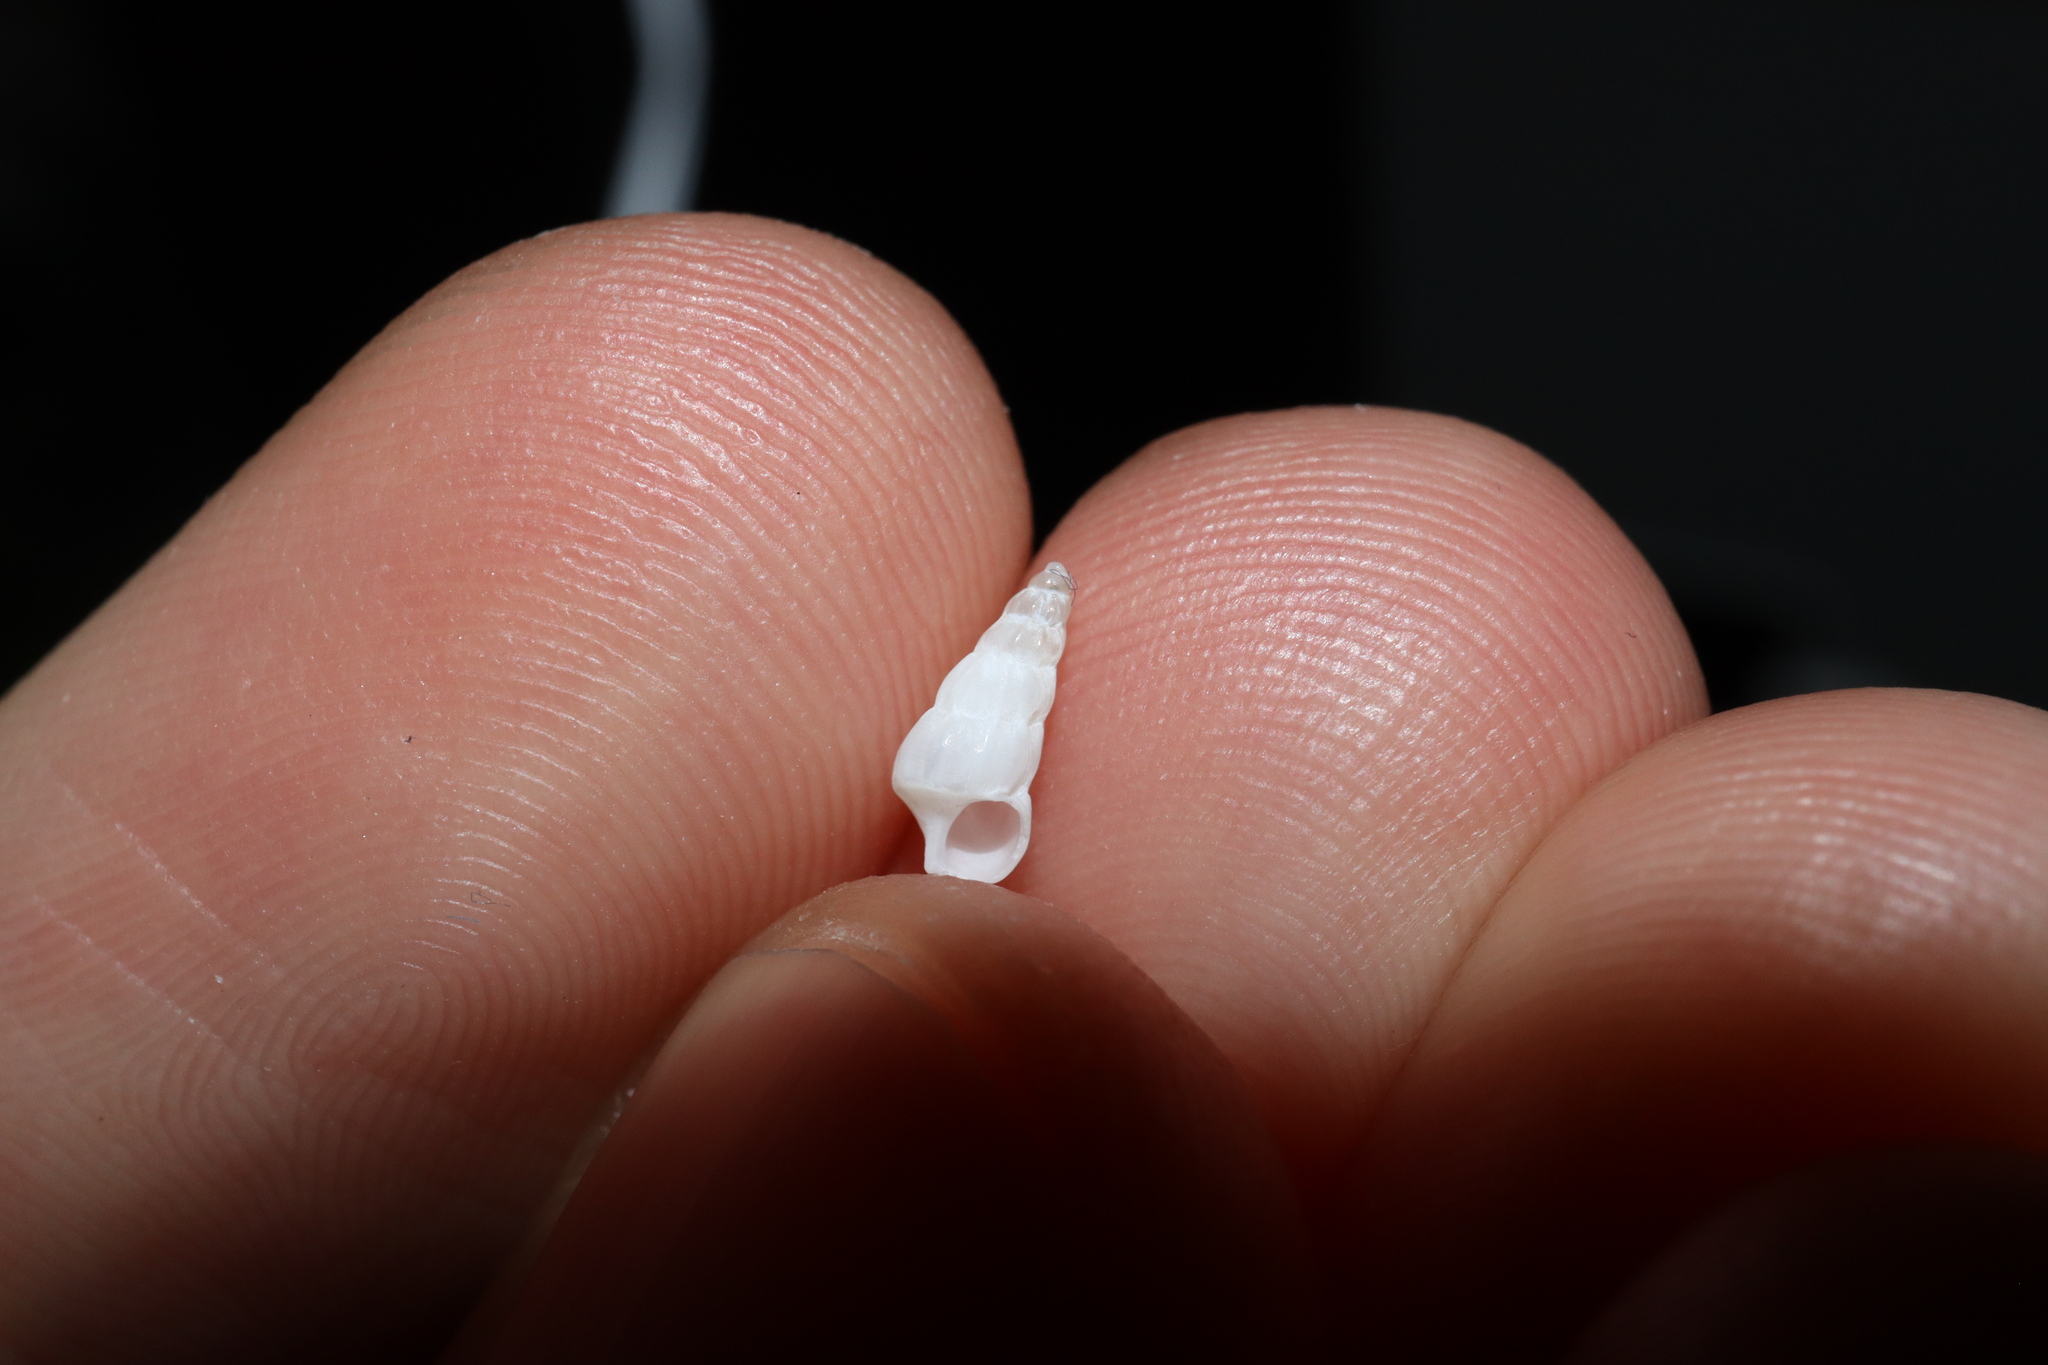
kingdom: Animalia
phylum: Mollusca
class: Gastropoda
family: Epitoniidae
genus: Opalia
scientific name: Opalia ballinensis
